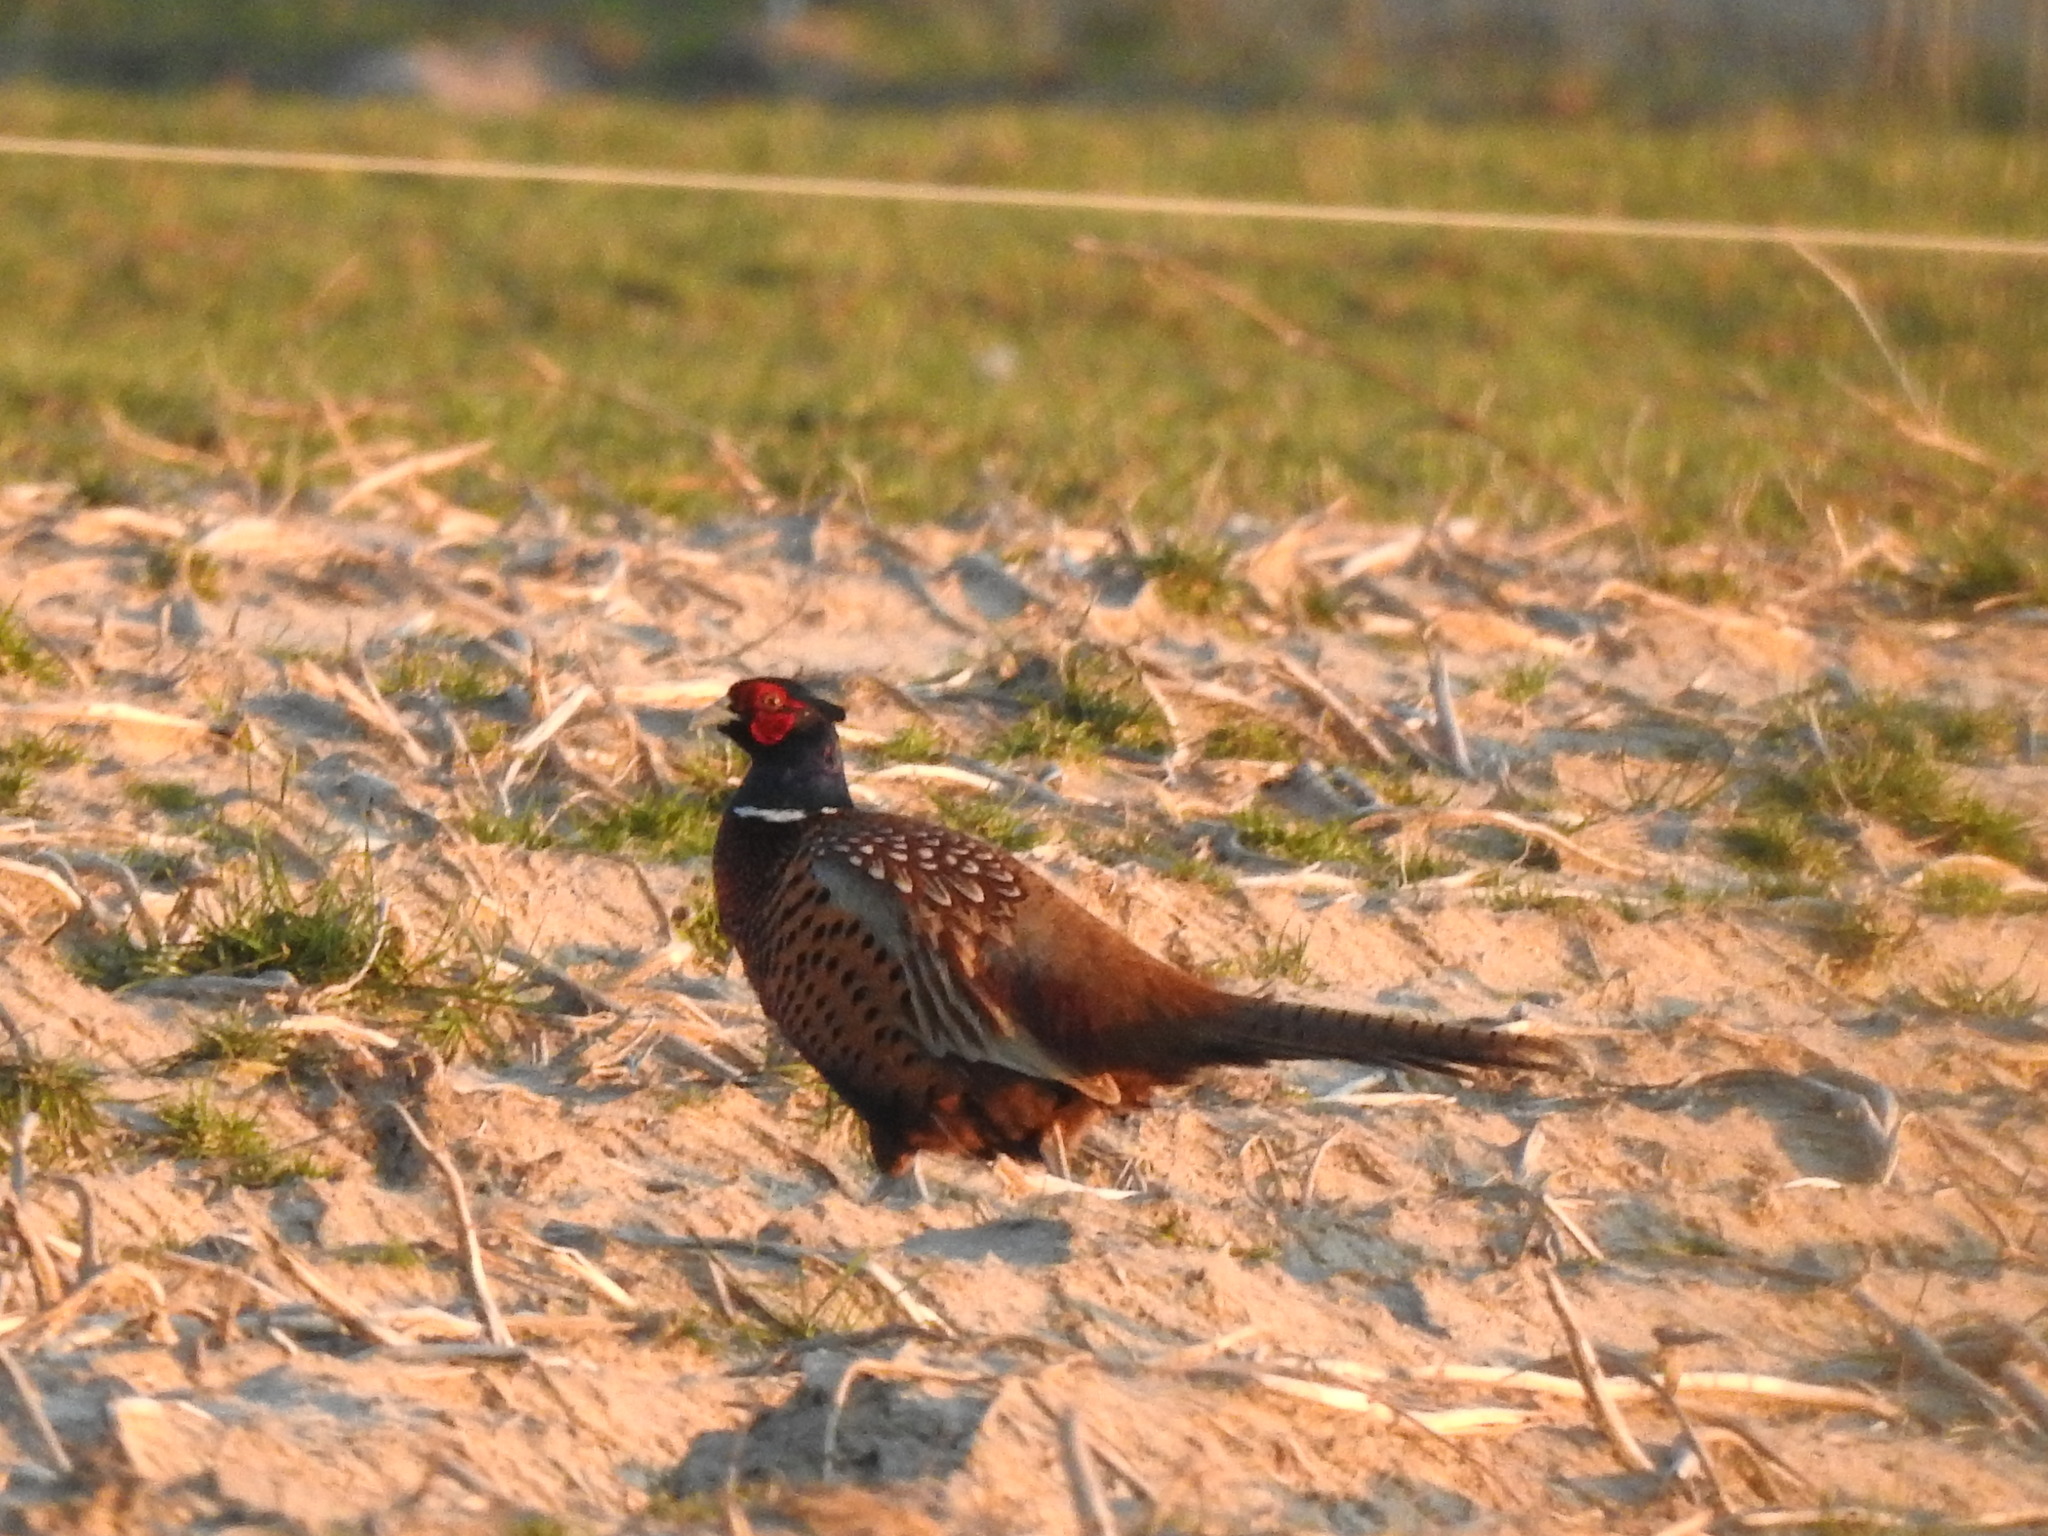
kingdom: Animalia
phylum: Chordata
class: Aves
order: Galliformes
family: Phasianidae
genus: Phasianus
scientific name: Phasianus colchicus
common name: Common pheasant
